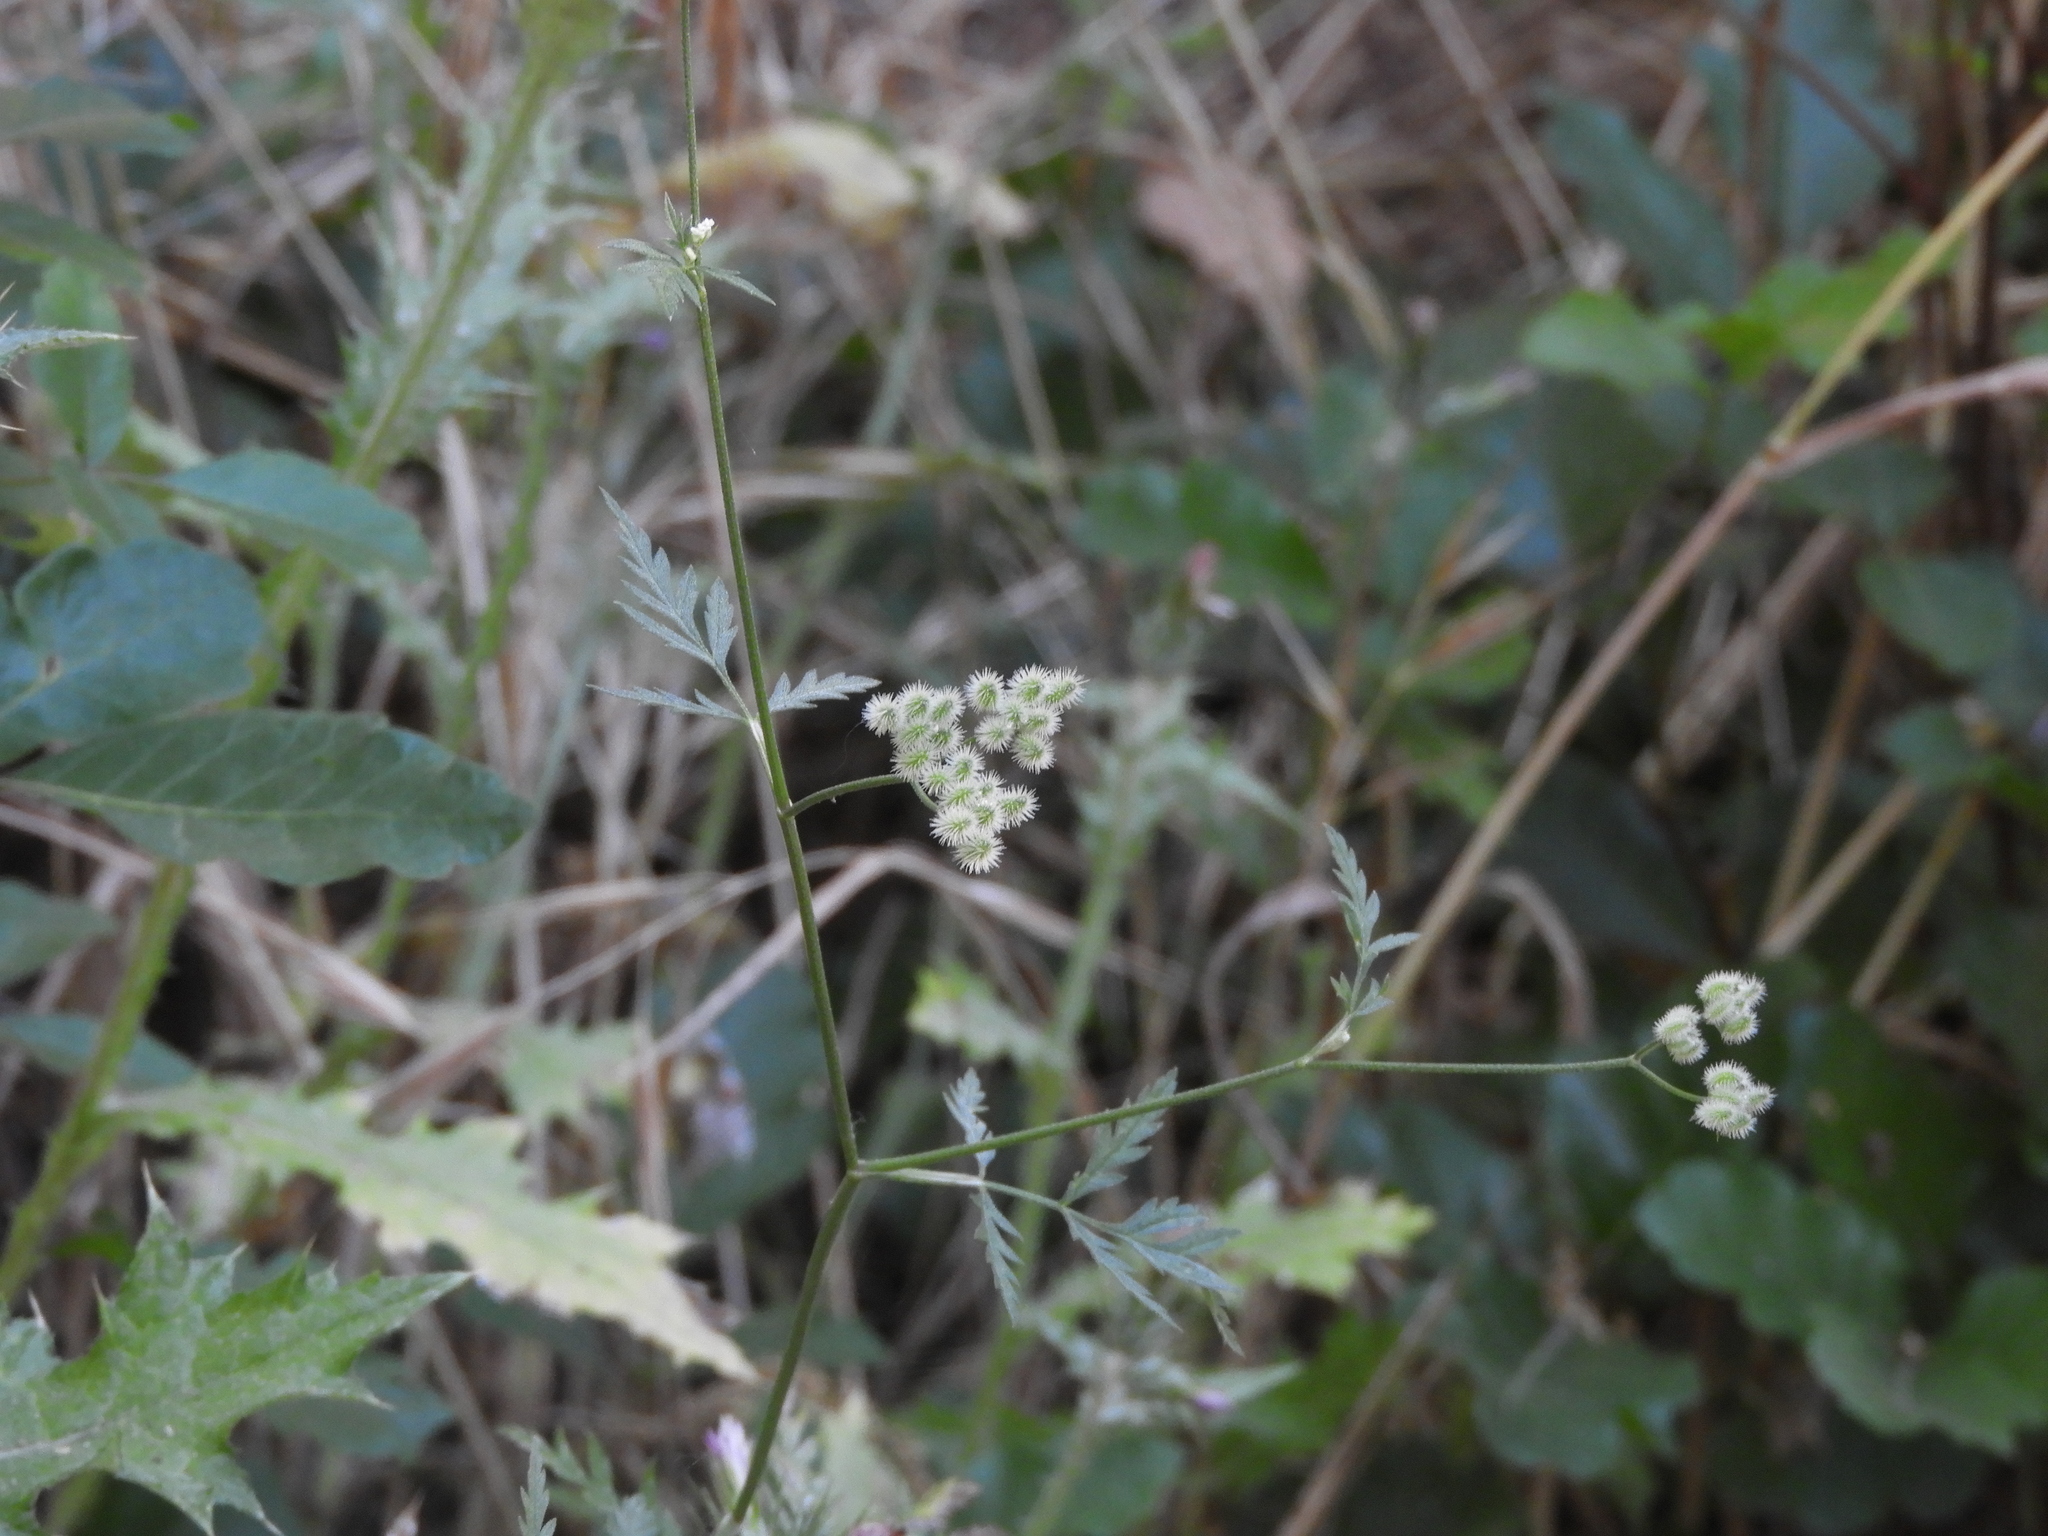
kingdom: Plantae
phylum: Tracheophyta
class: Magnoliopsida
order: Apiales
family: Apiaceae
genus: Torilis
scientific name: Torilis arvensis
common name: Spreading hedge-parsley
